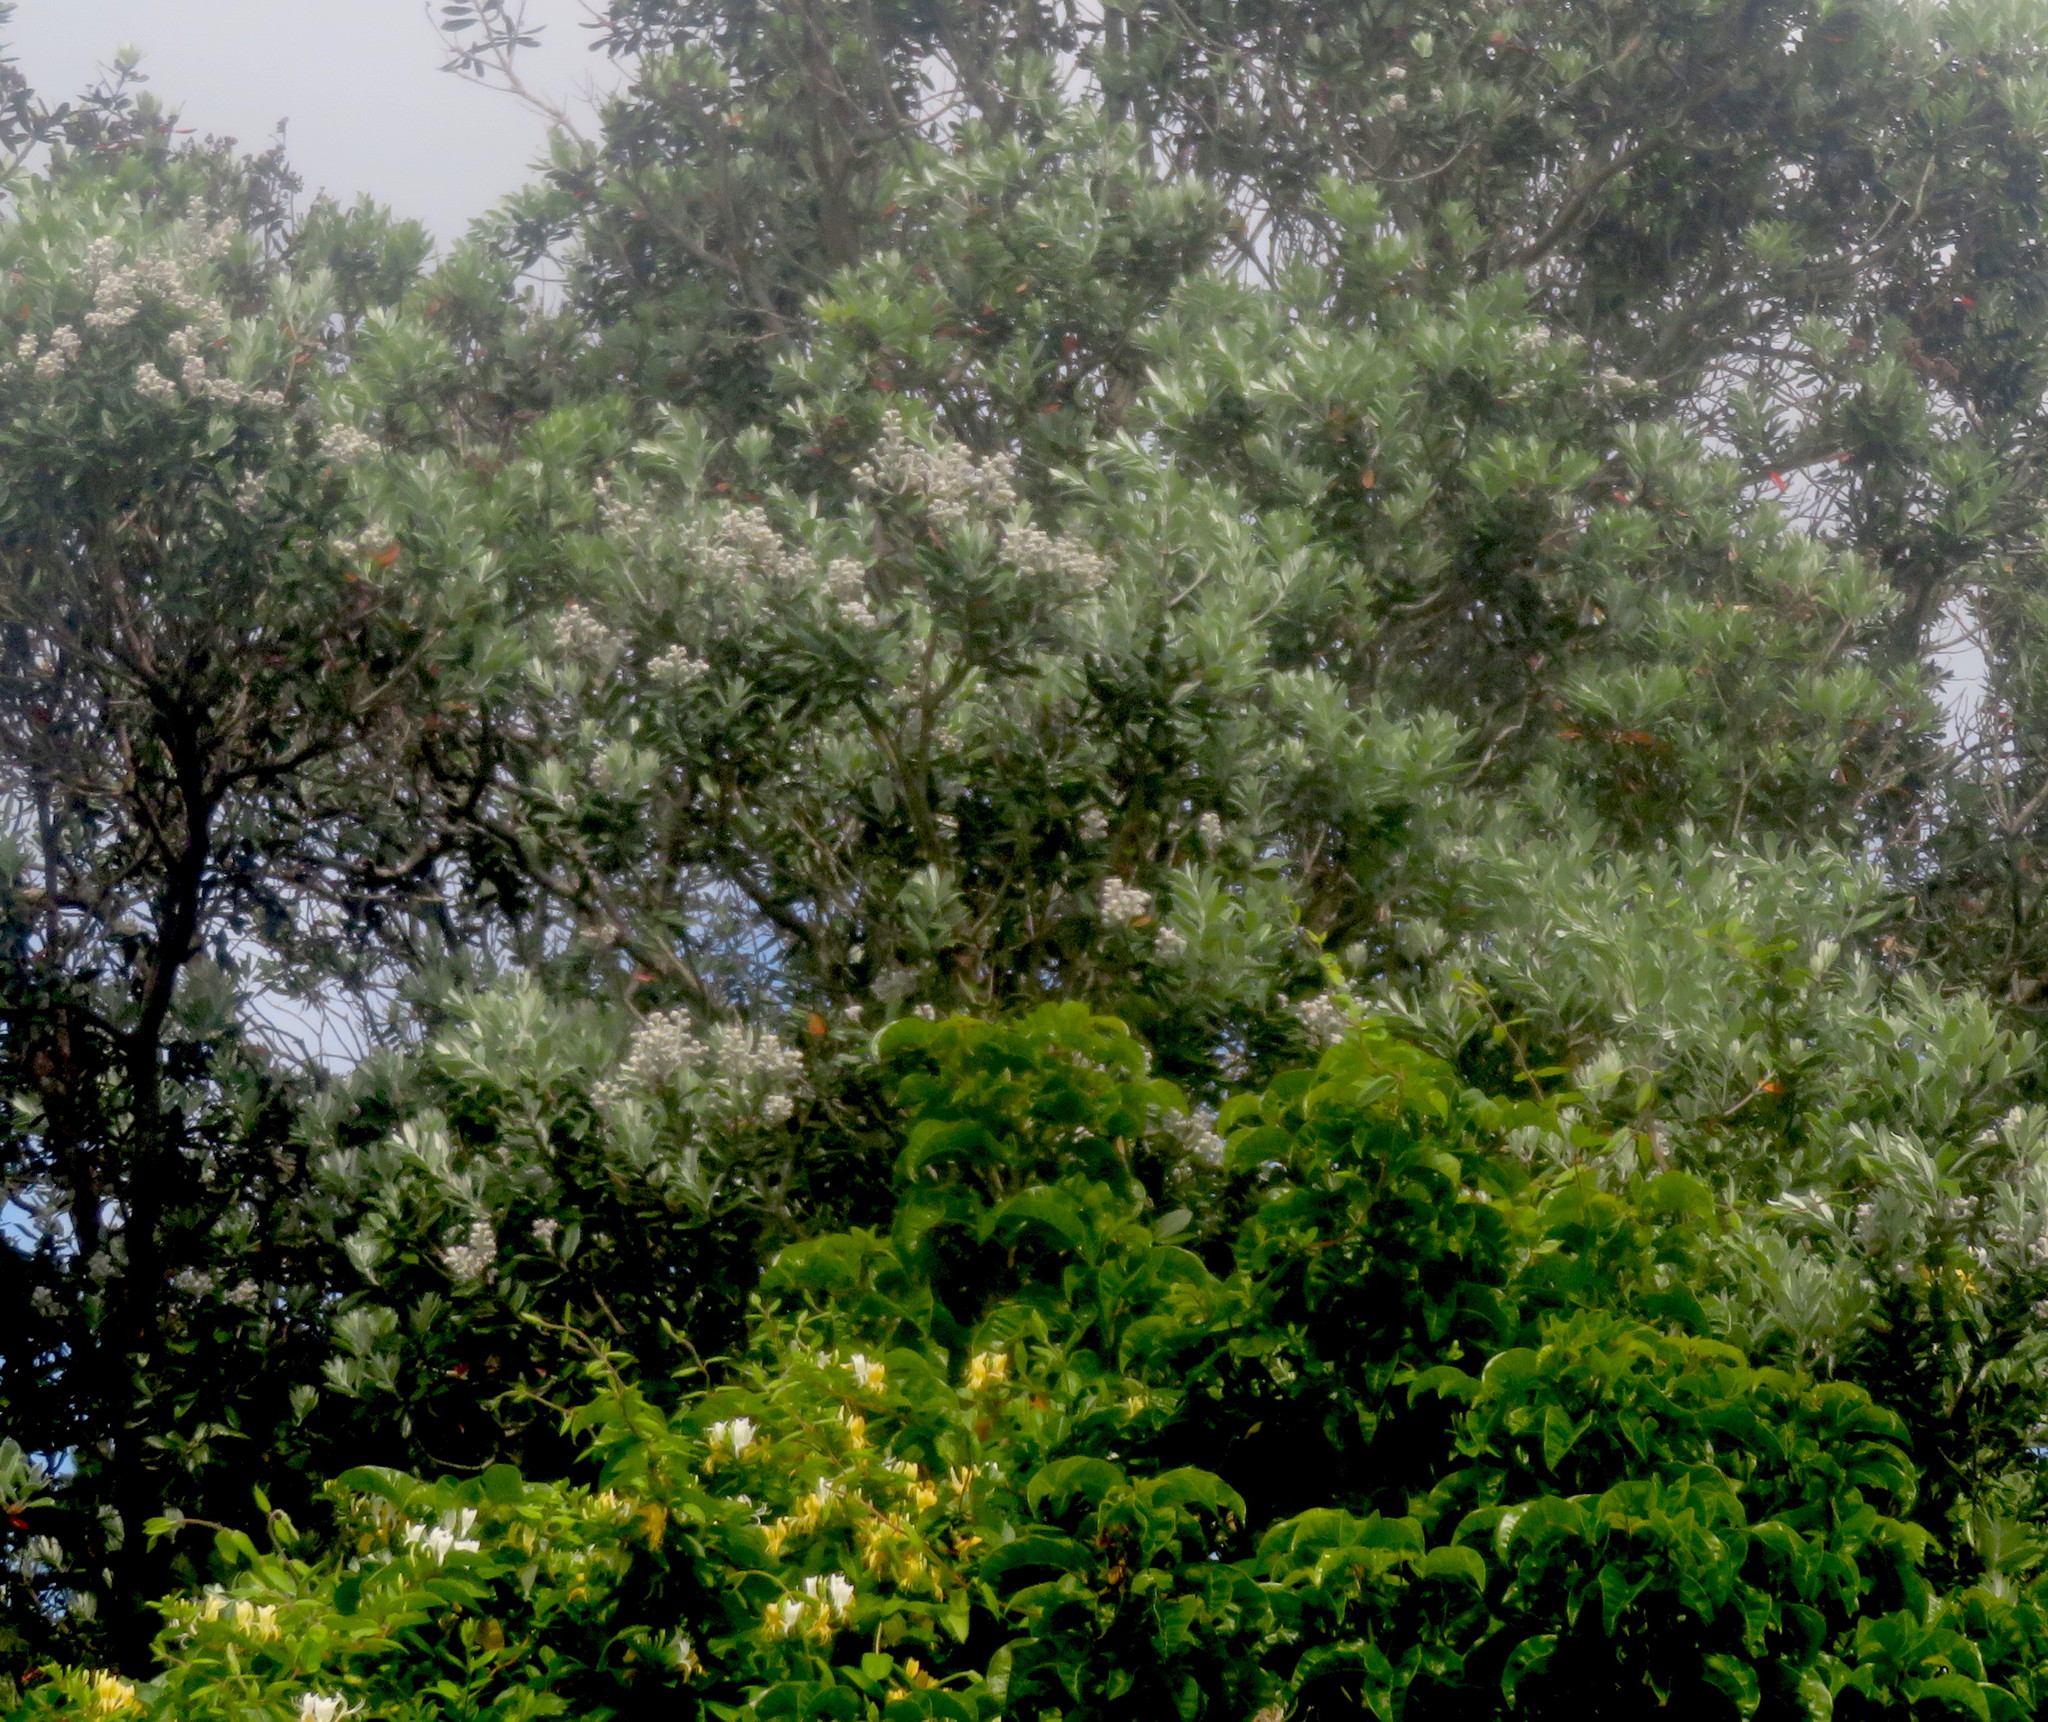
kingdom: Plantae
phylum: Tracheophyta
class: Magnoliopsida
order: Lamiales
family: Lamiaceae
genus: Vitex
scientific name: Vitex lucens
